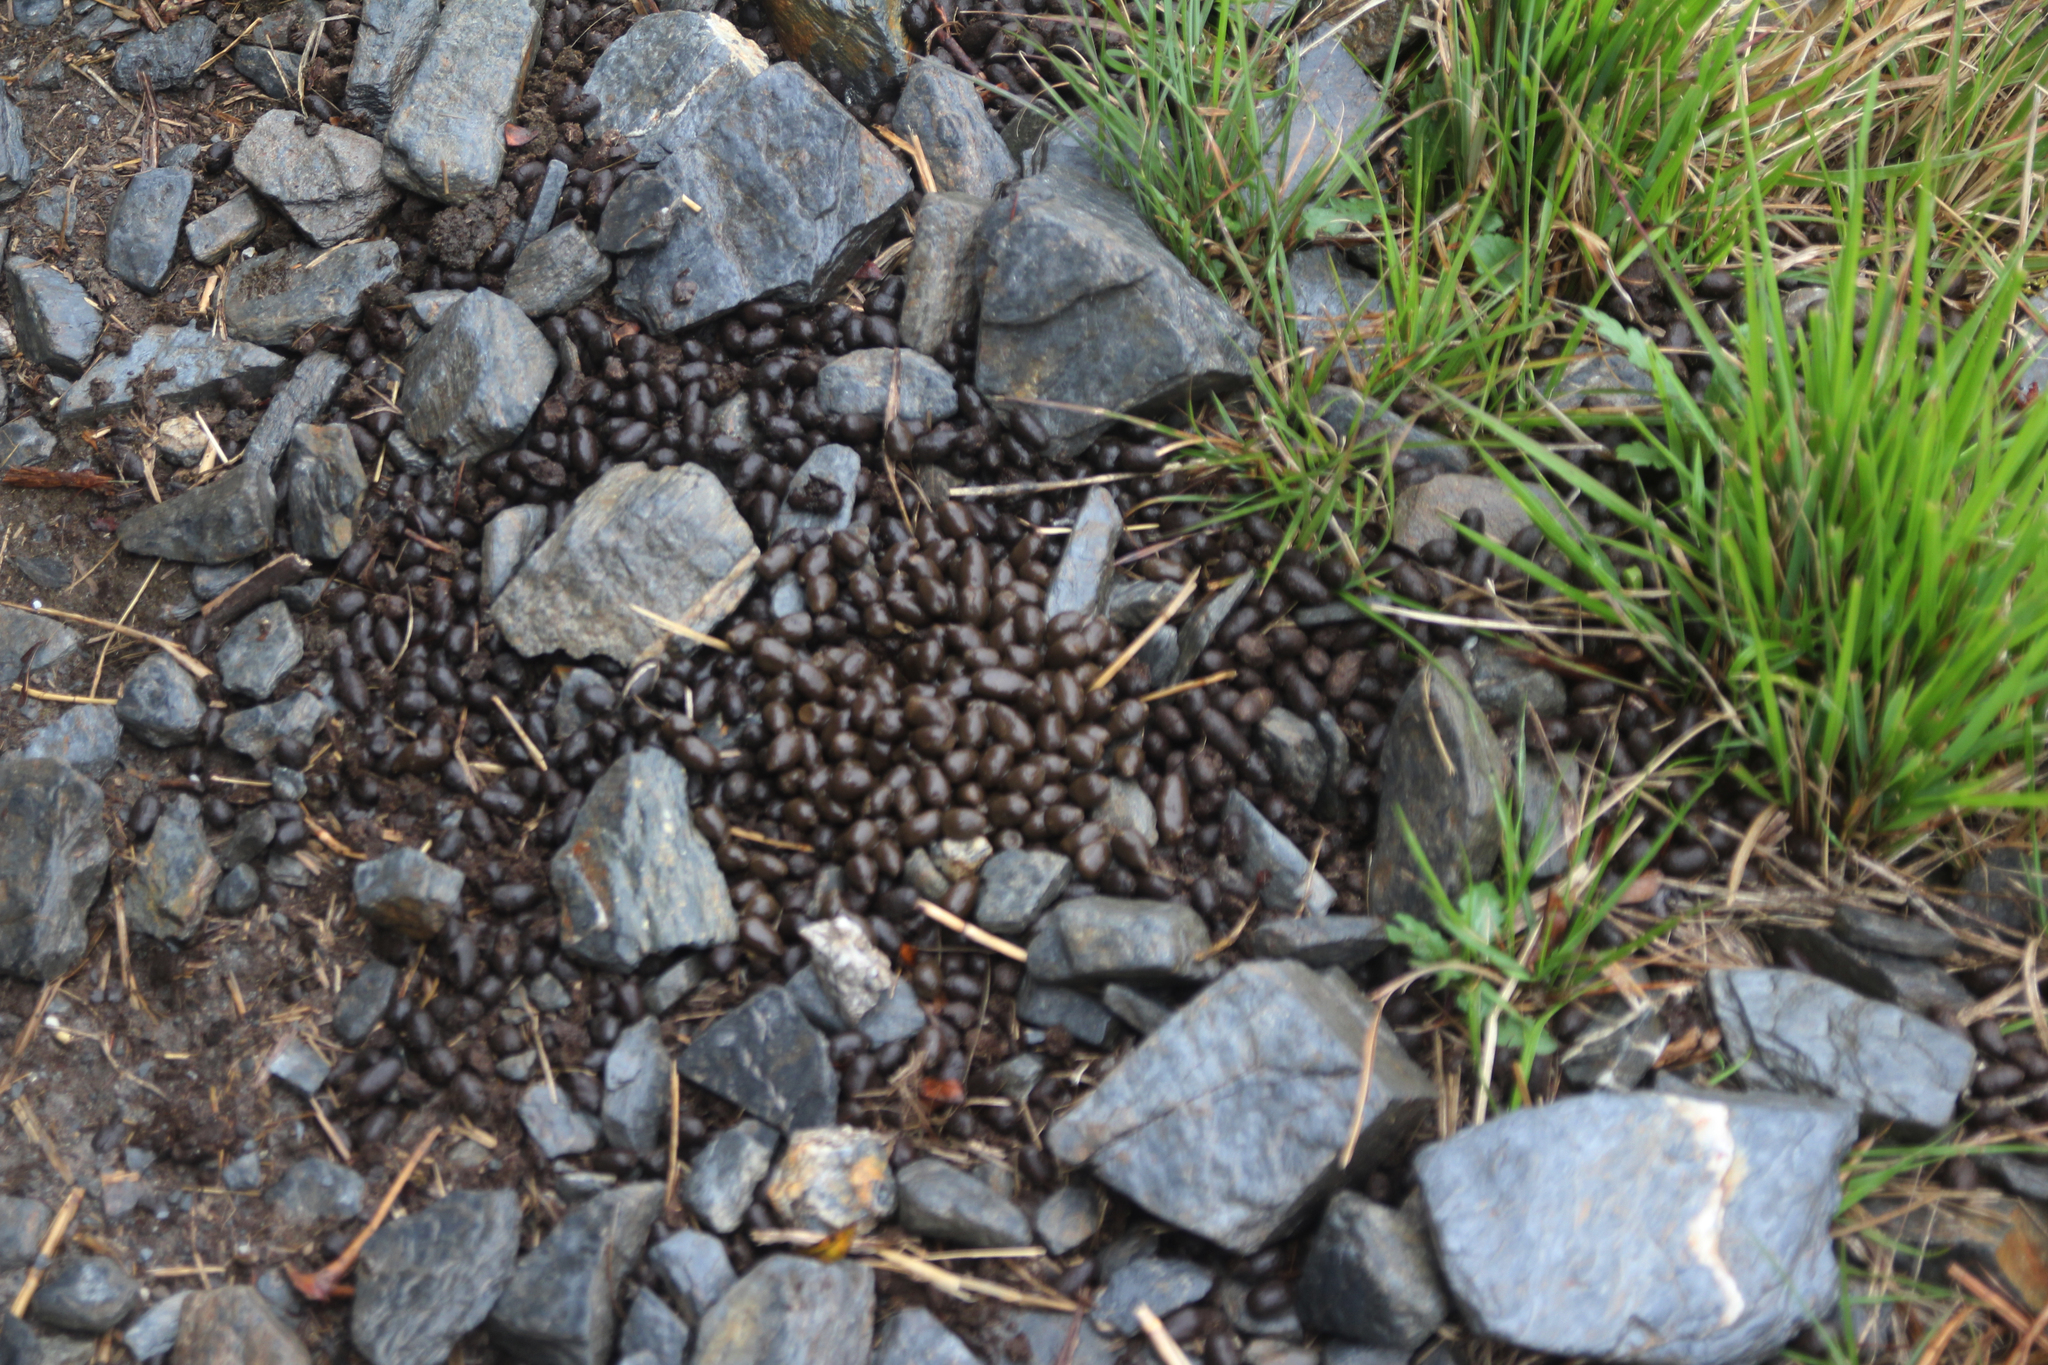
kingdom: Animalia
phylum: Chordata
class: Mammalia
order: Artiodactyla
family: Bovidae
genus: Capricornis
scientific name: Capricornis swinhoei
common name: Formosan serow
